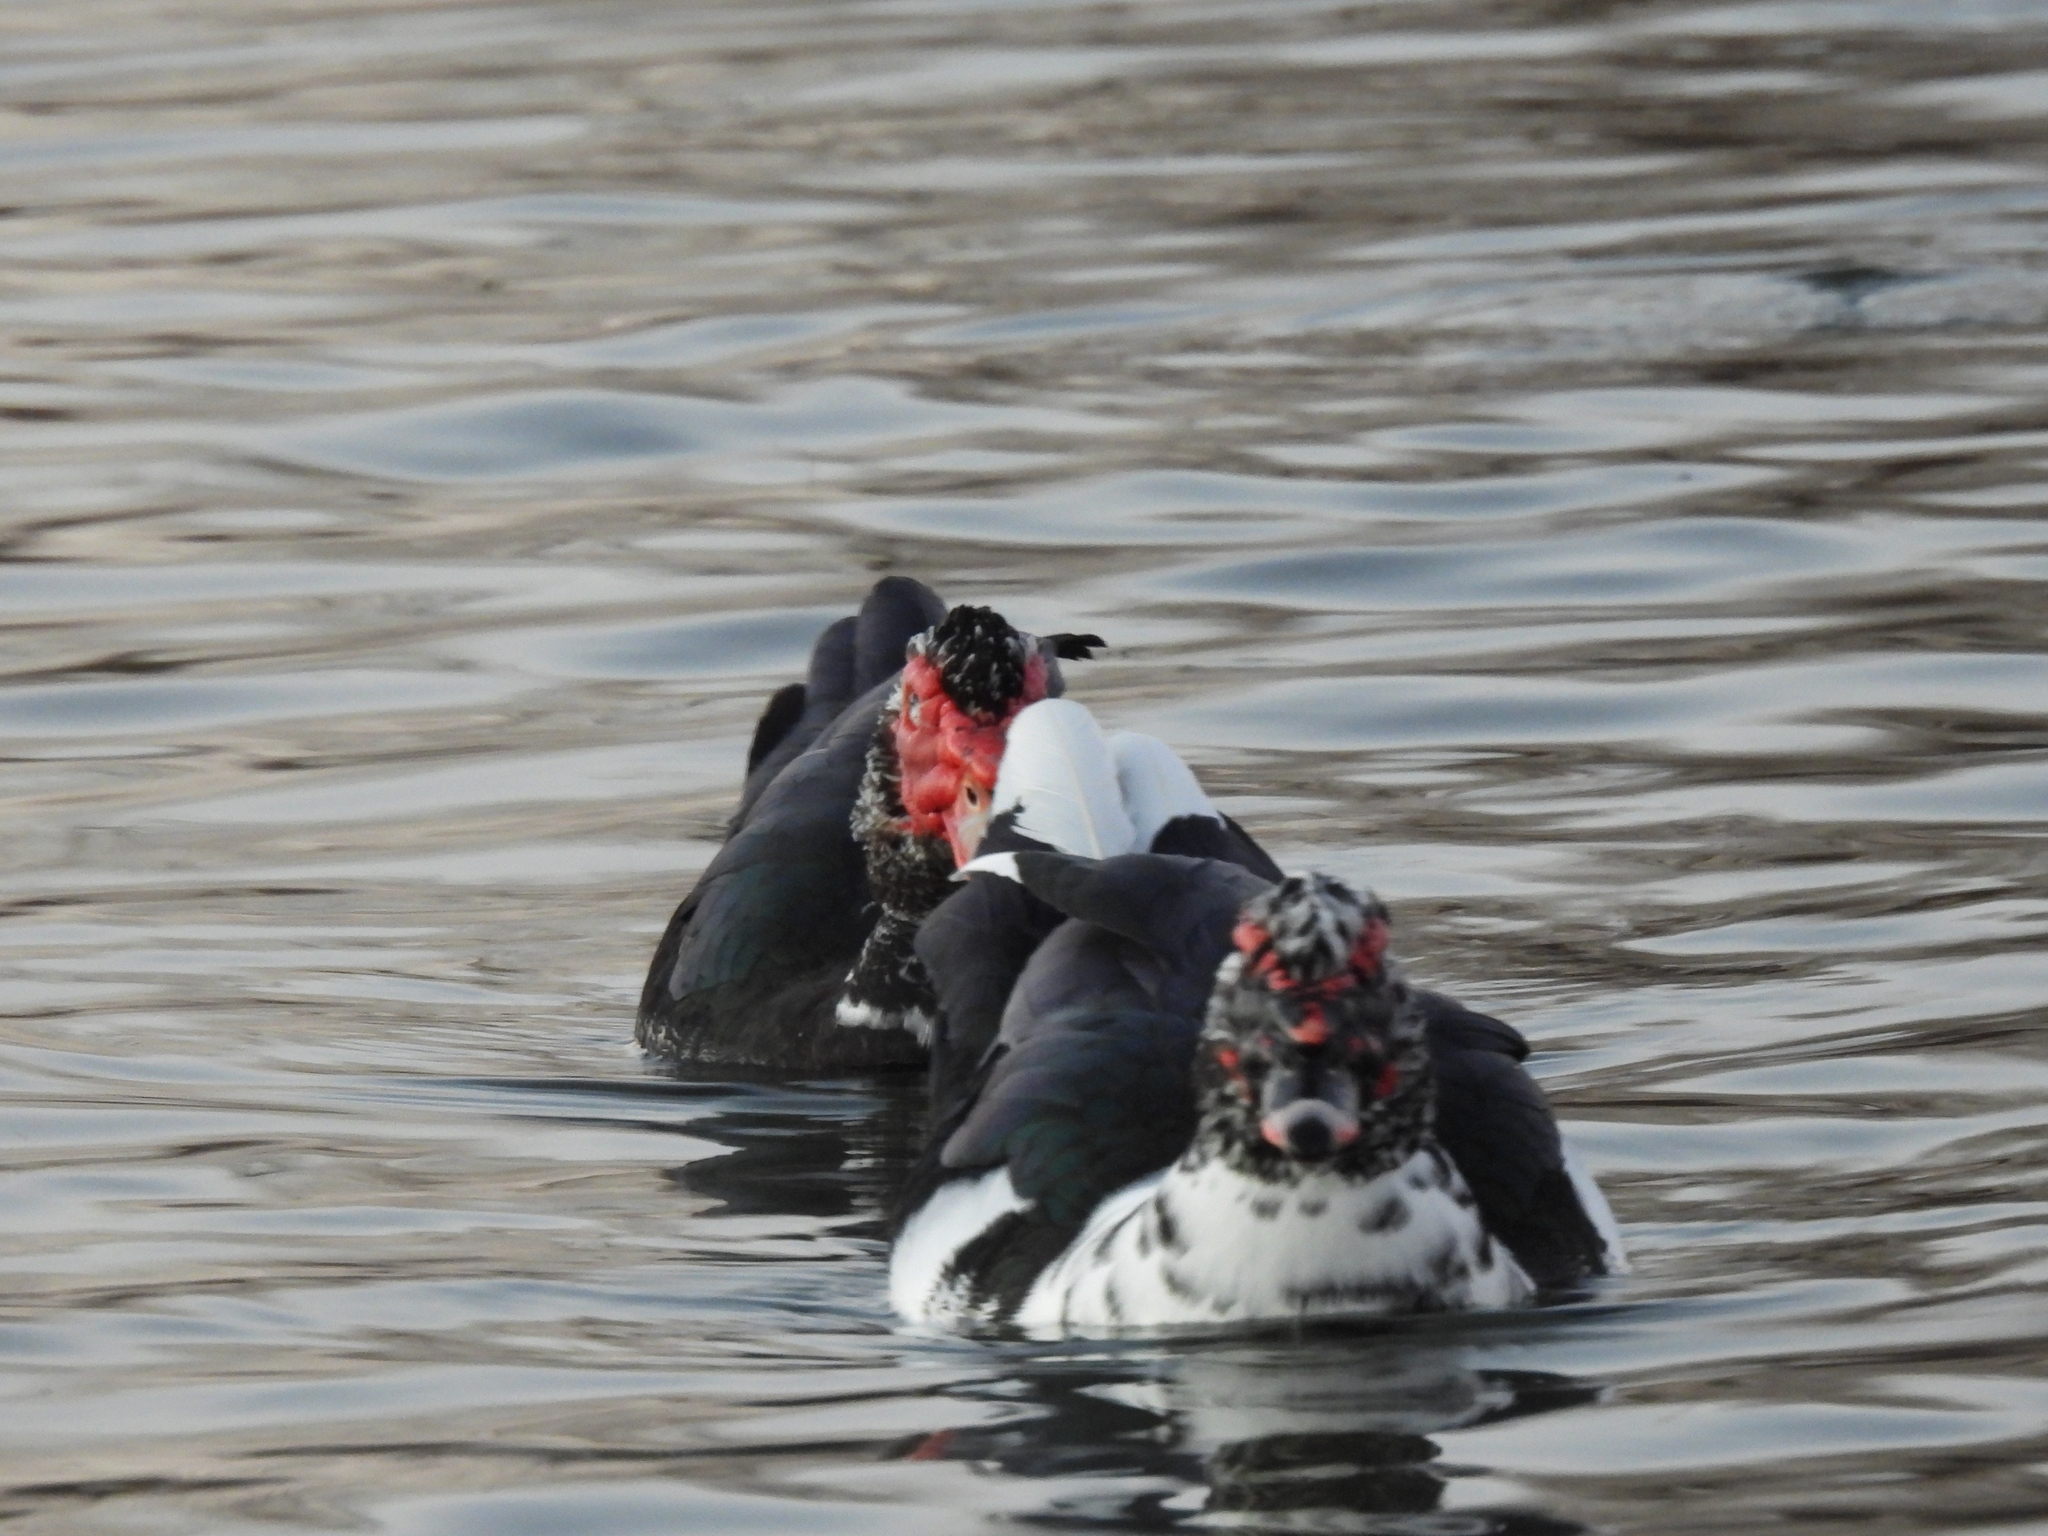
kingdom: Animalia
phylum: Chordata
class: Aves
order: Anseriformes
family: Anatidae
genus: Cairina
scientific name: Cairina moschata
